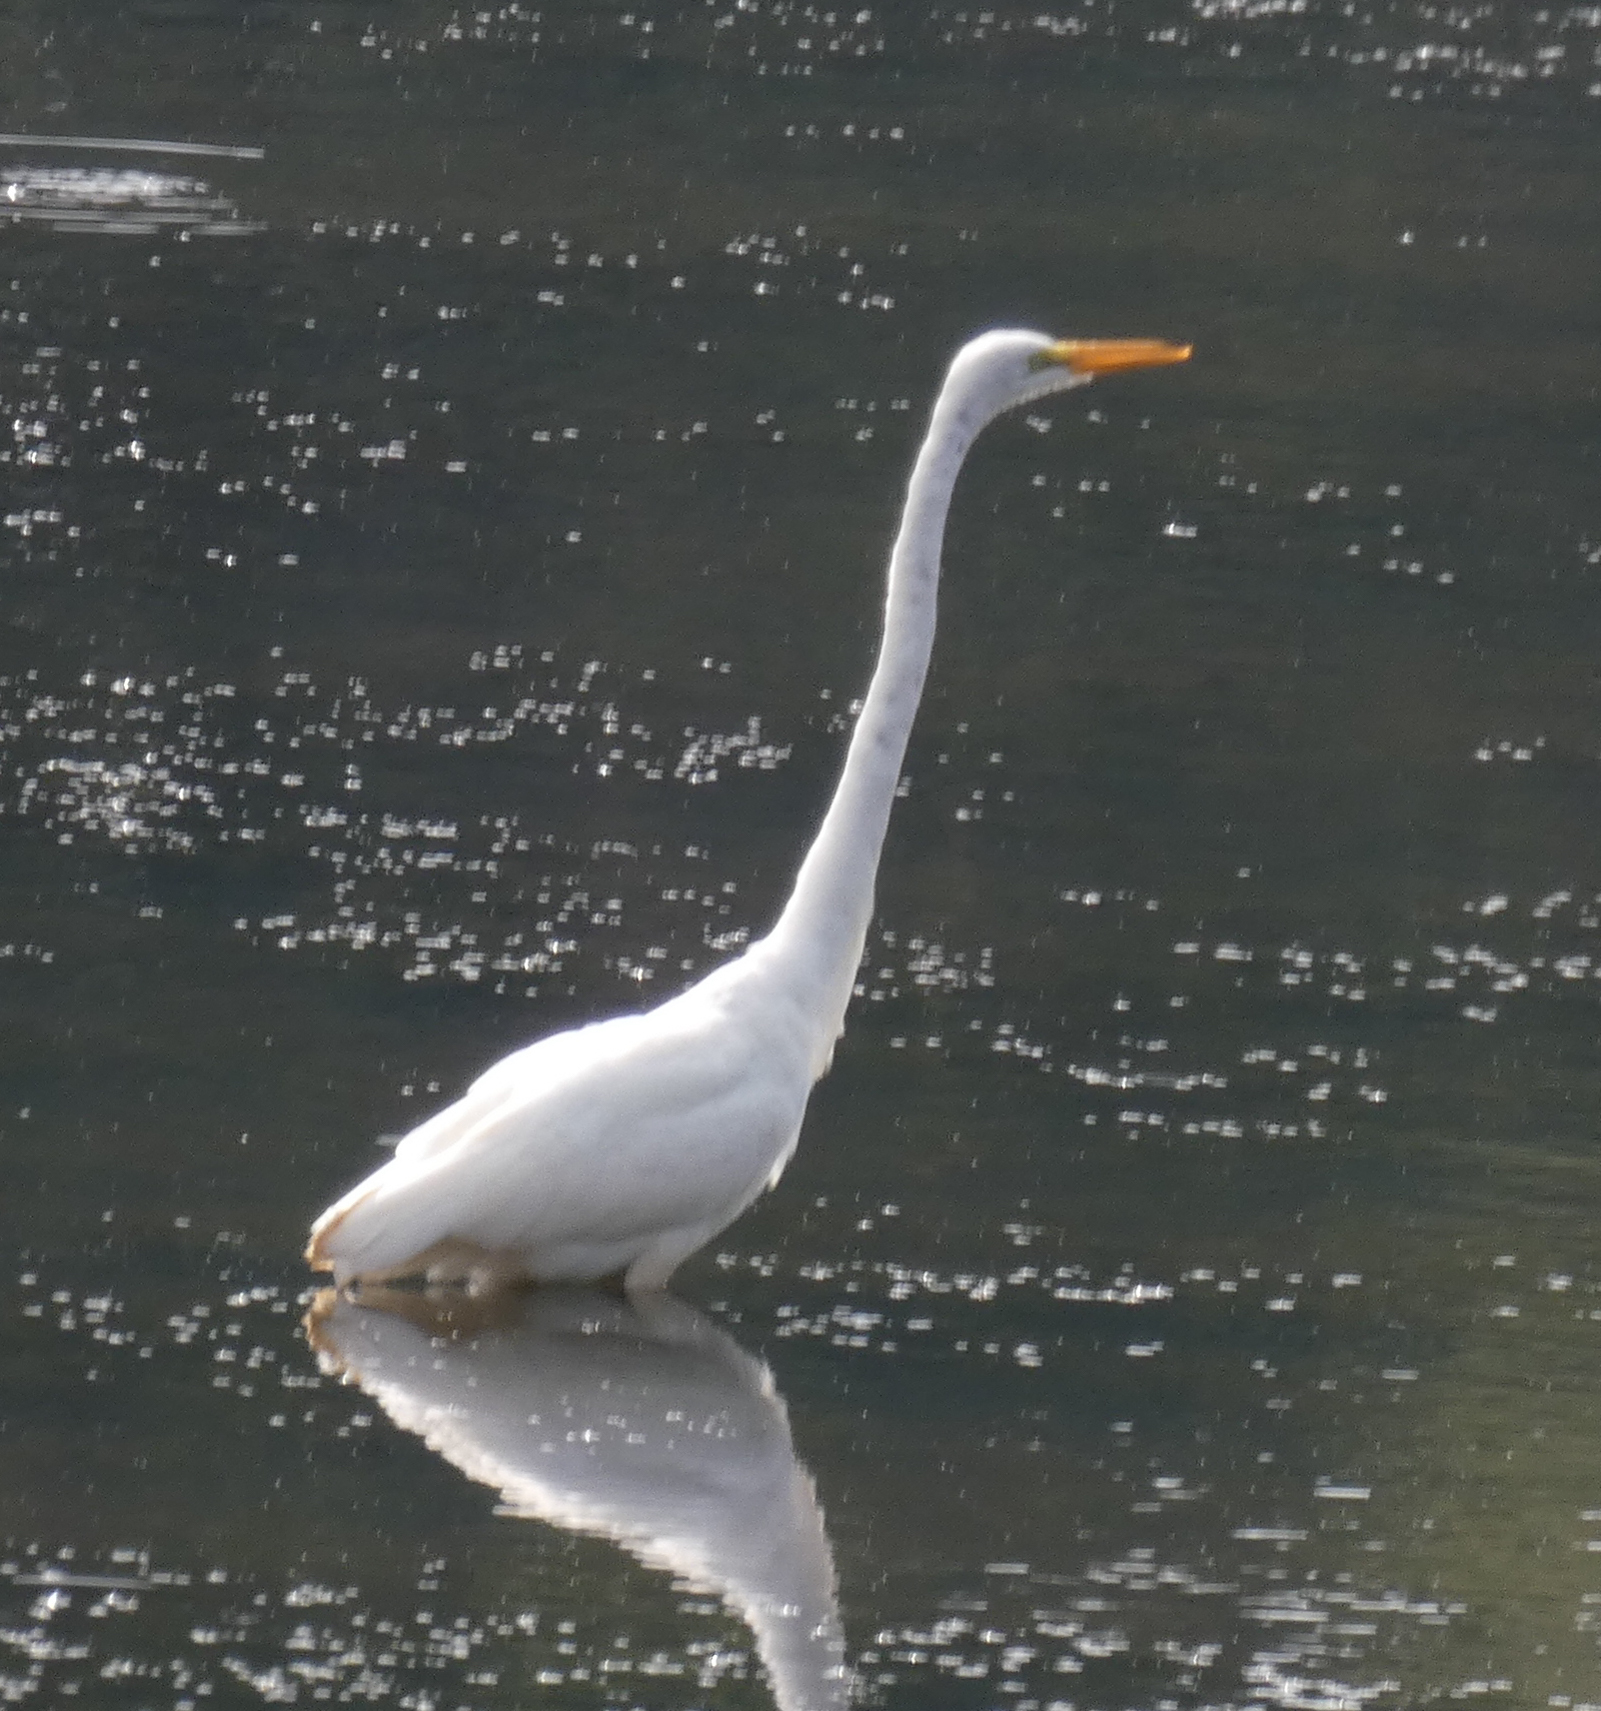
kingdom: Animalia
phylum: Chordata
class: Aves
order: Pelecaniformes
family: Ardeidae
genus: Ardea
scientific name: Ardea alba
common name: Great egret
